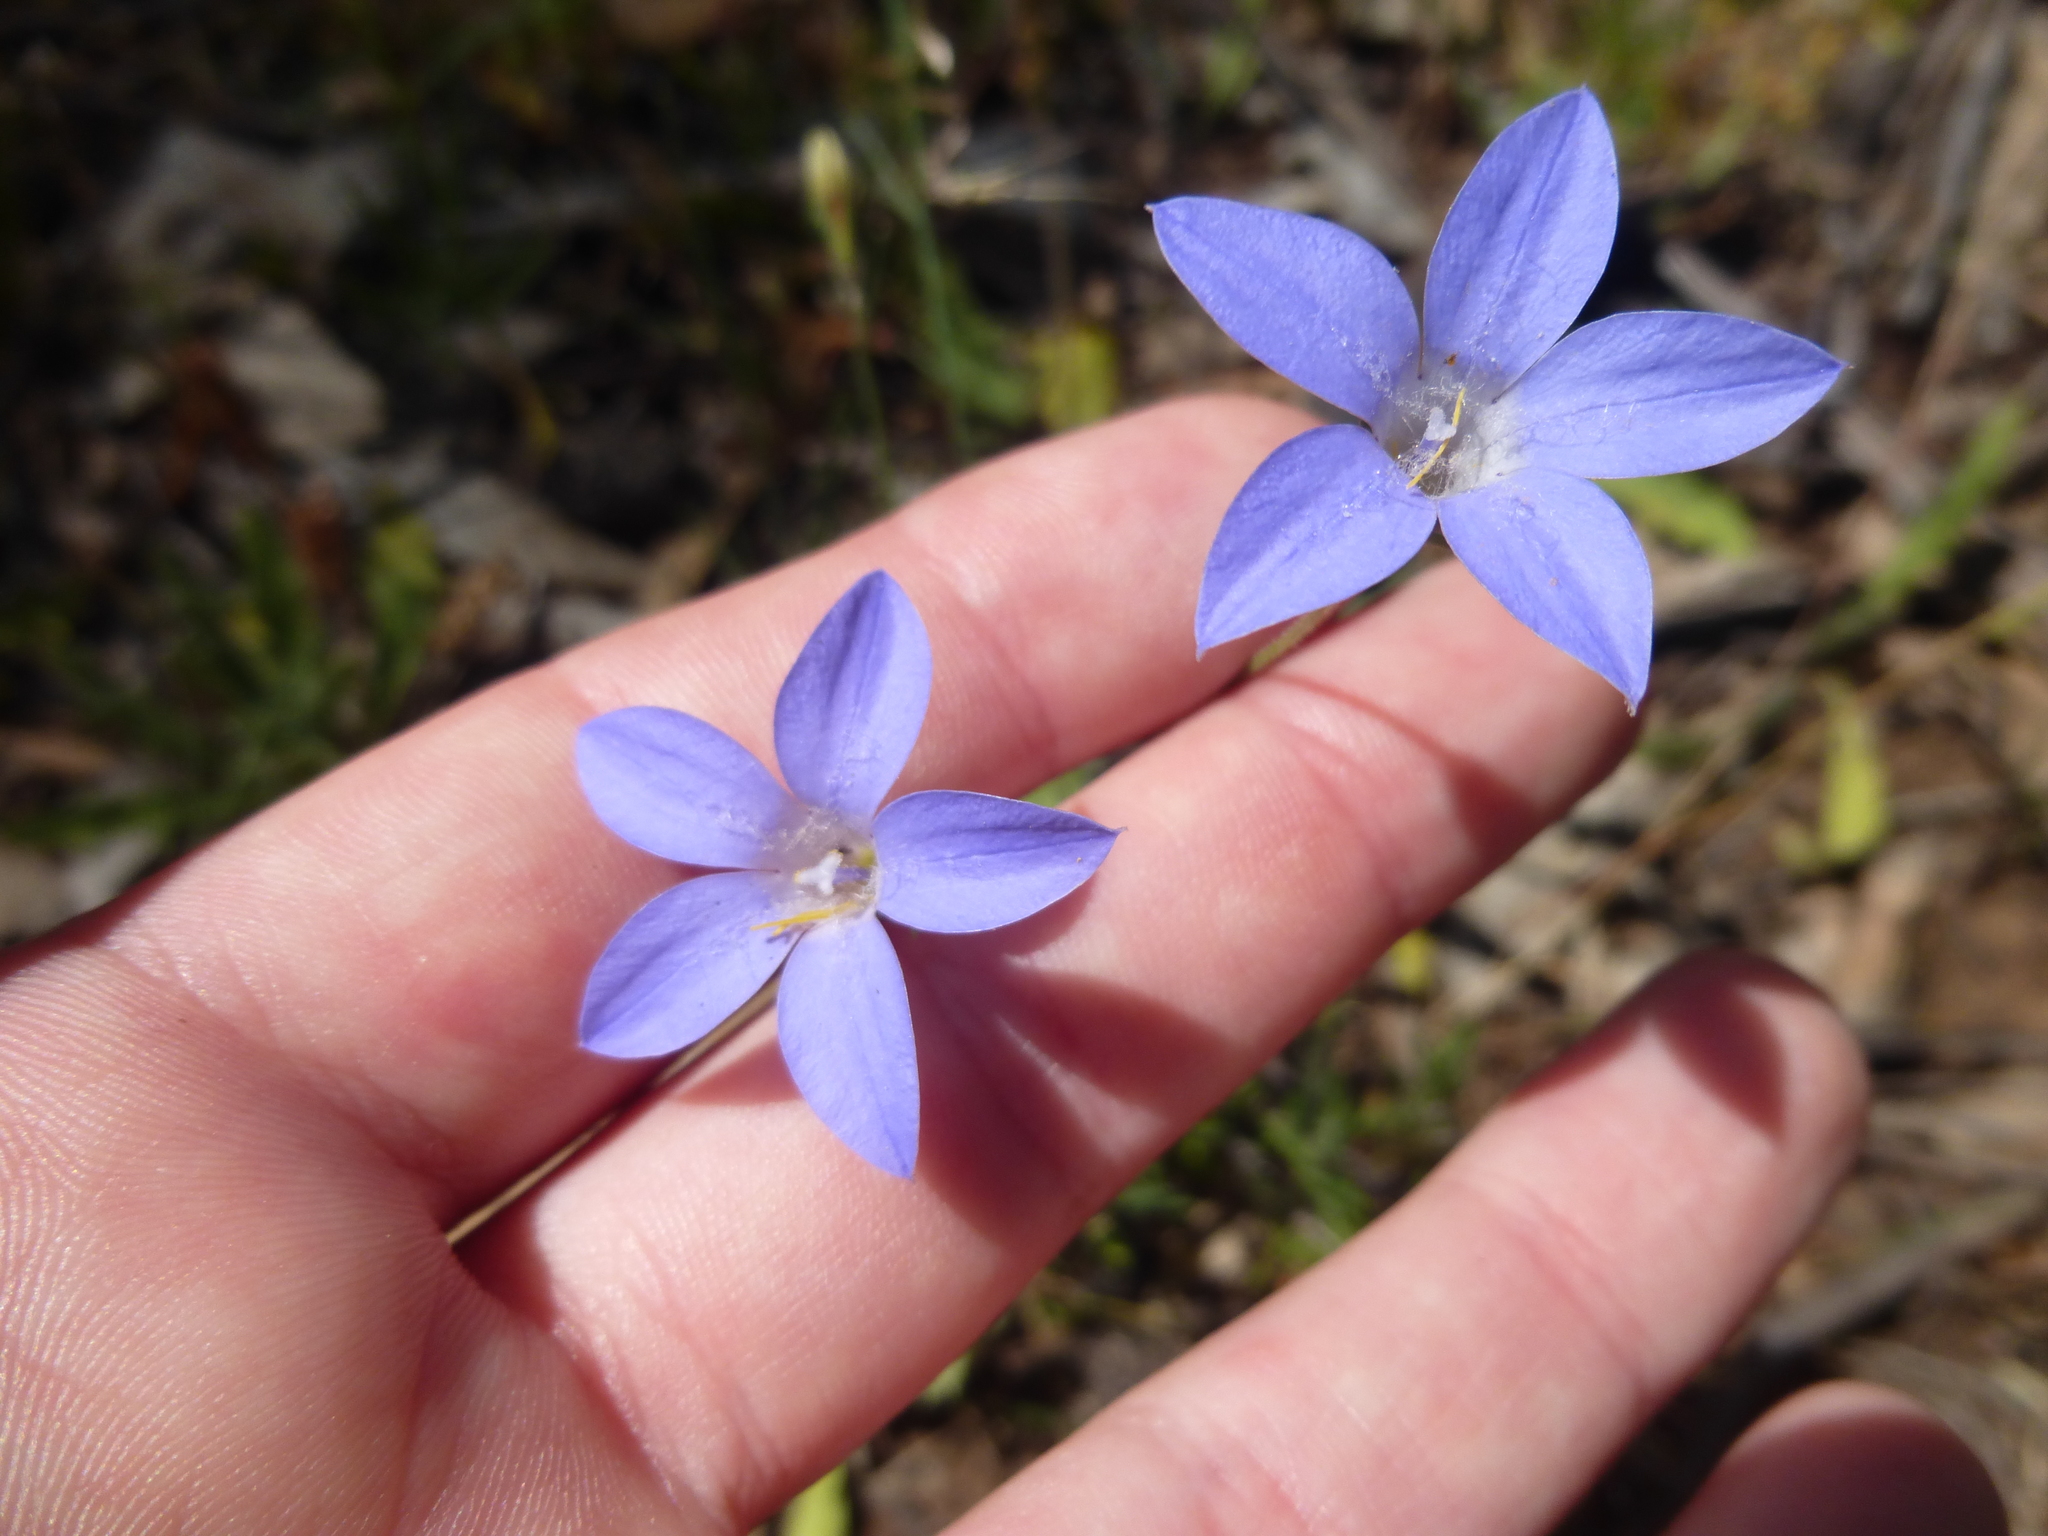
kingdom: Plantae
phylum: Tracheophyta
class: Magnoliopsida
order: Asterales
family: Campanulaceae
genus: Wahlenbergia
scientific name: Wahlenbergia stricta
